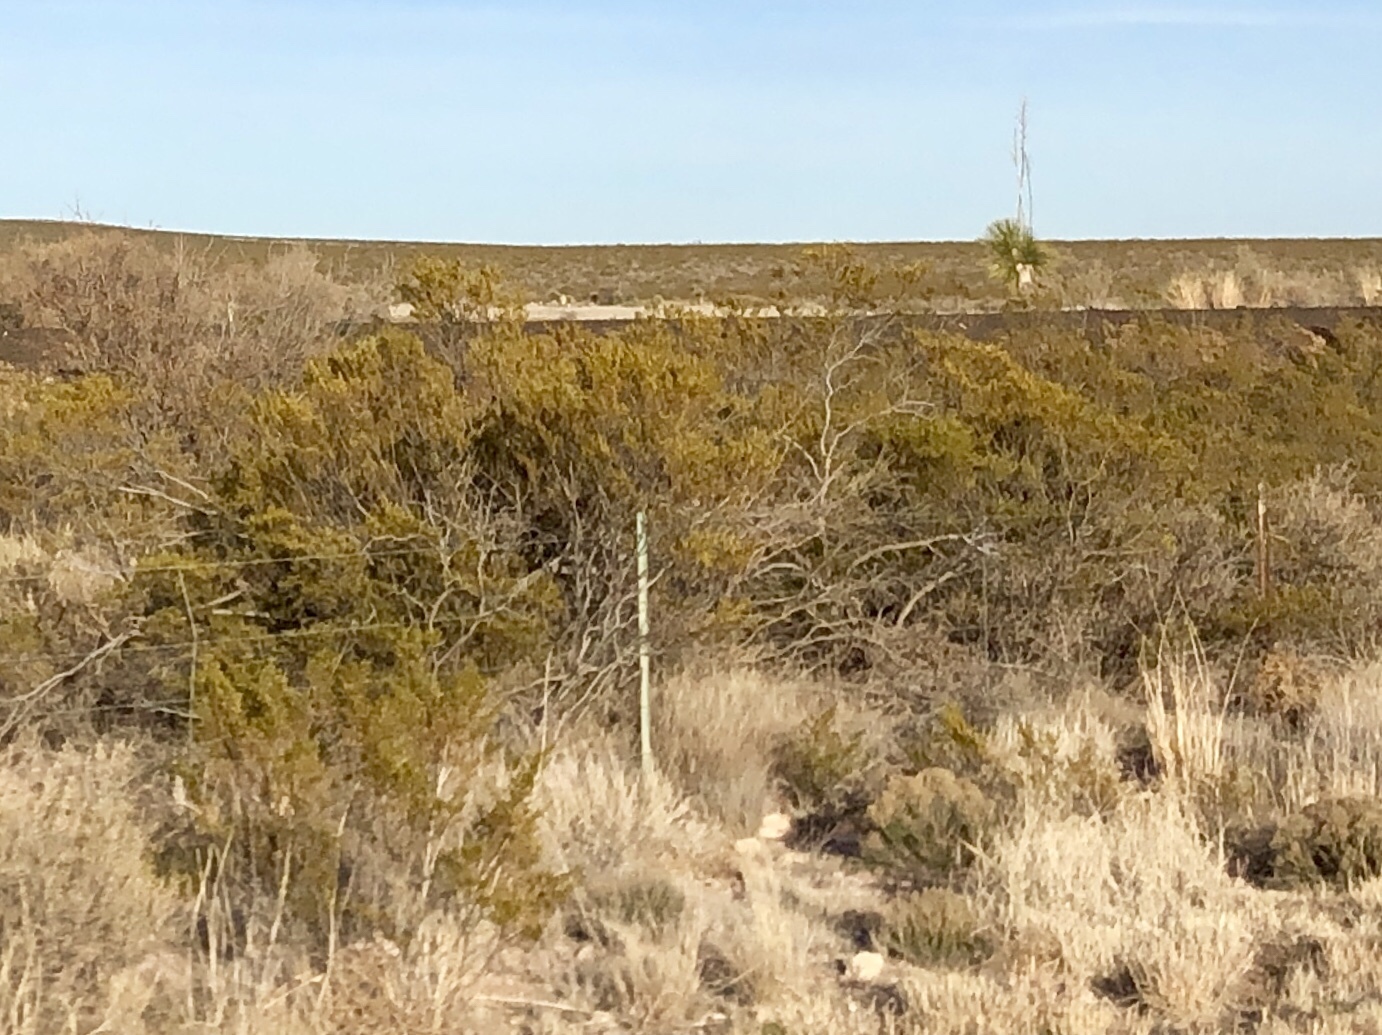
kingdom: Plantae
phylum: Tracheophyta
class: Magnoliopsida
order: Zygophyllales
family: Zygophyllaceae
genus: Larrea
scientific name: Larrea tridentata
